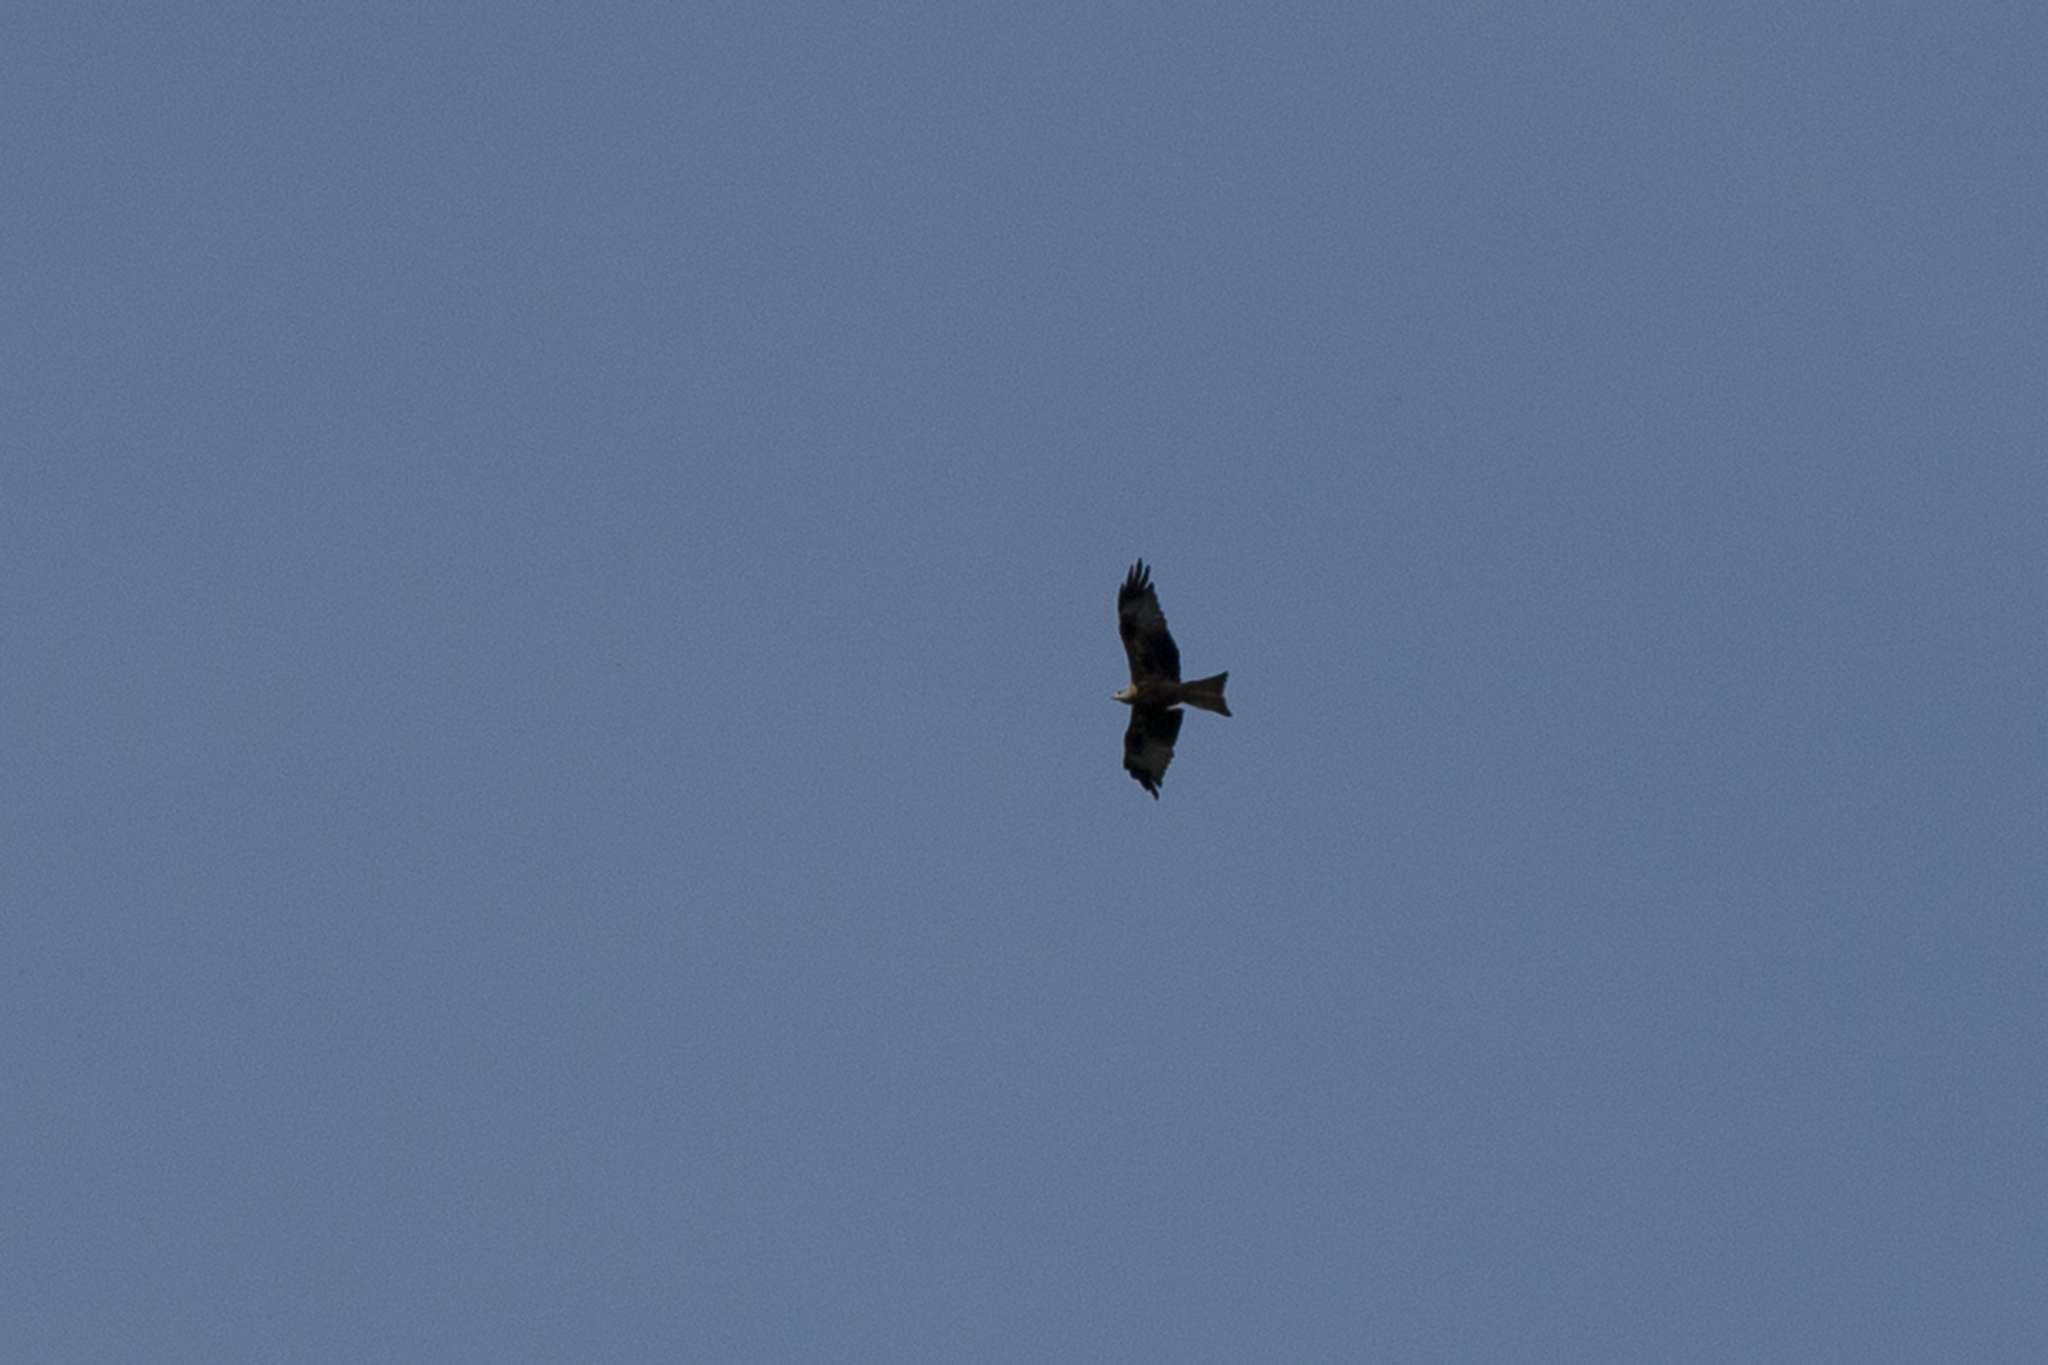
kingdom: Animalia
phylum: Chordata
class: Aves
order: Accipitriformes
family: Accipitridae
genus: Milvus
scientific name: Milvus milvus
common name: Red kite
